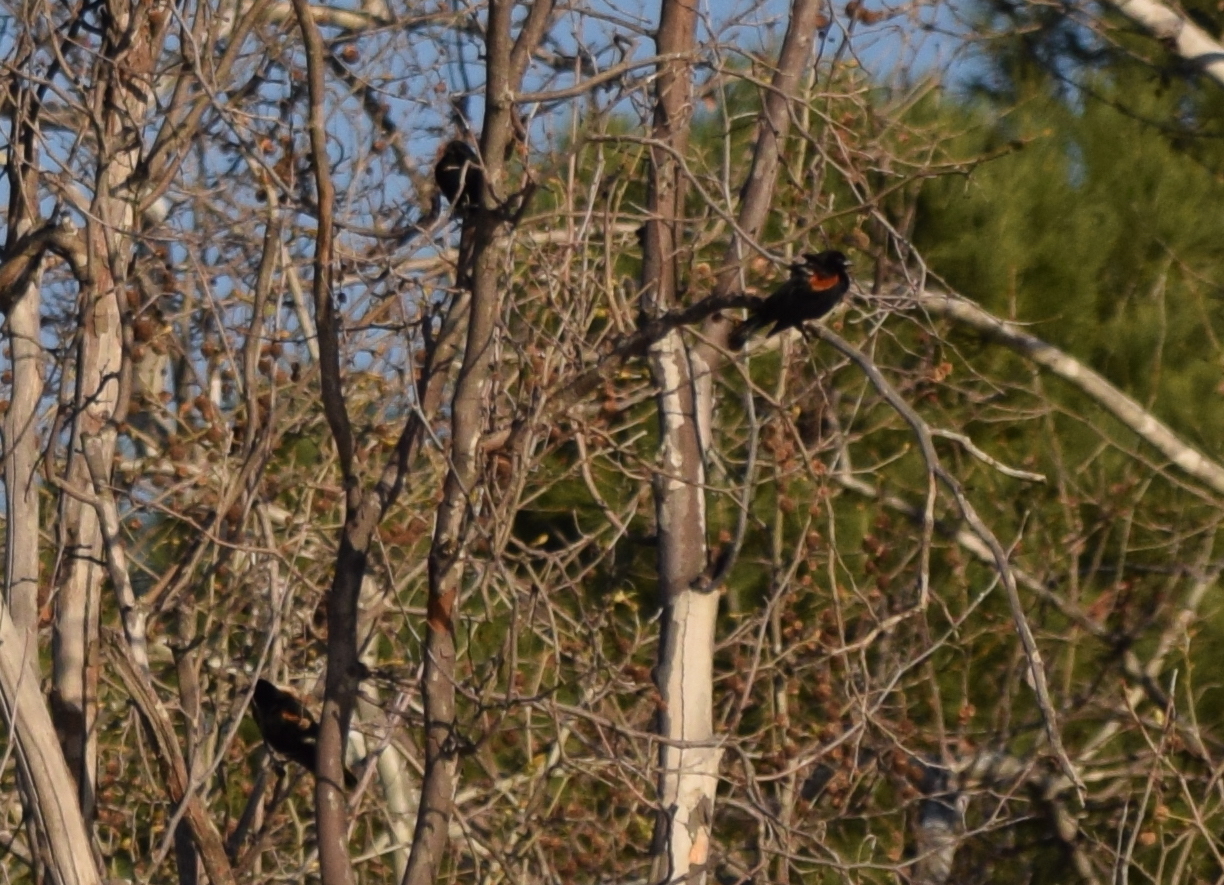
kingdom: Animalia
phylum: Chordata
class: Aves
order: Passeriformes
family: Icteridae
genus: Agelaius
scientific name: Agelaius phoeniceus
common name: Red-winged blackbird
